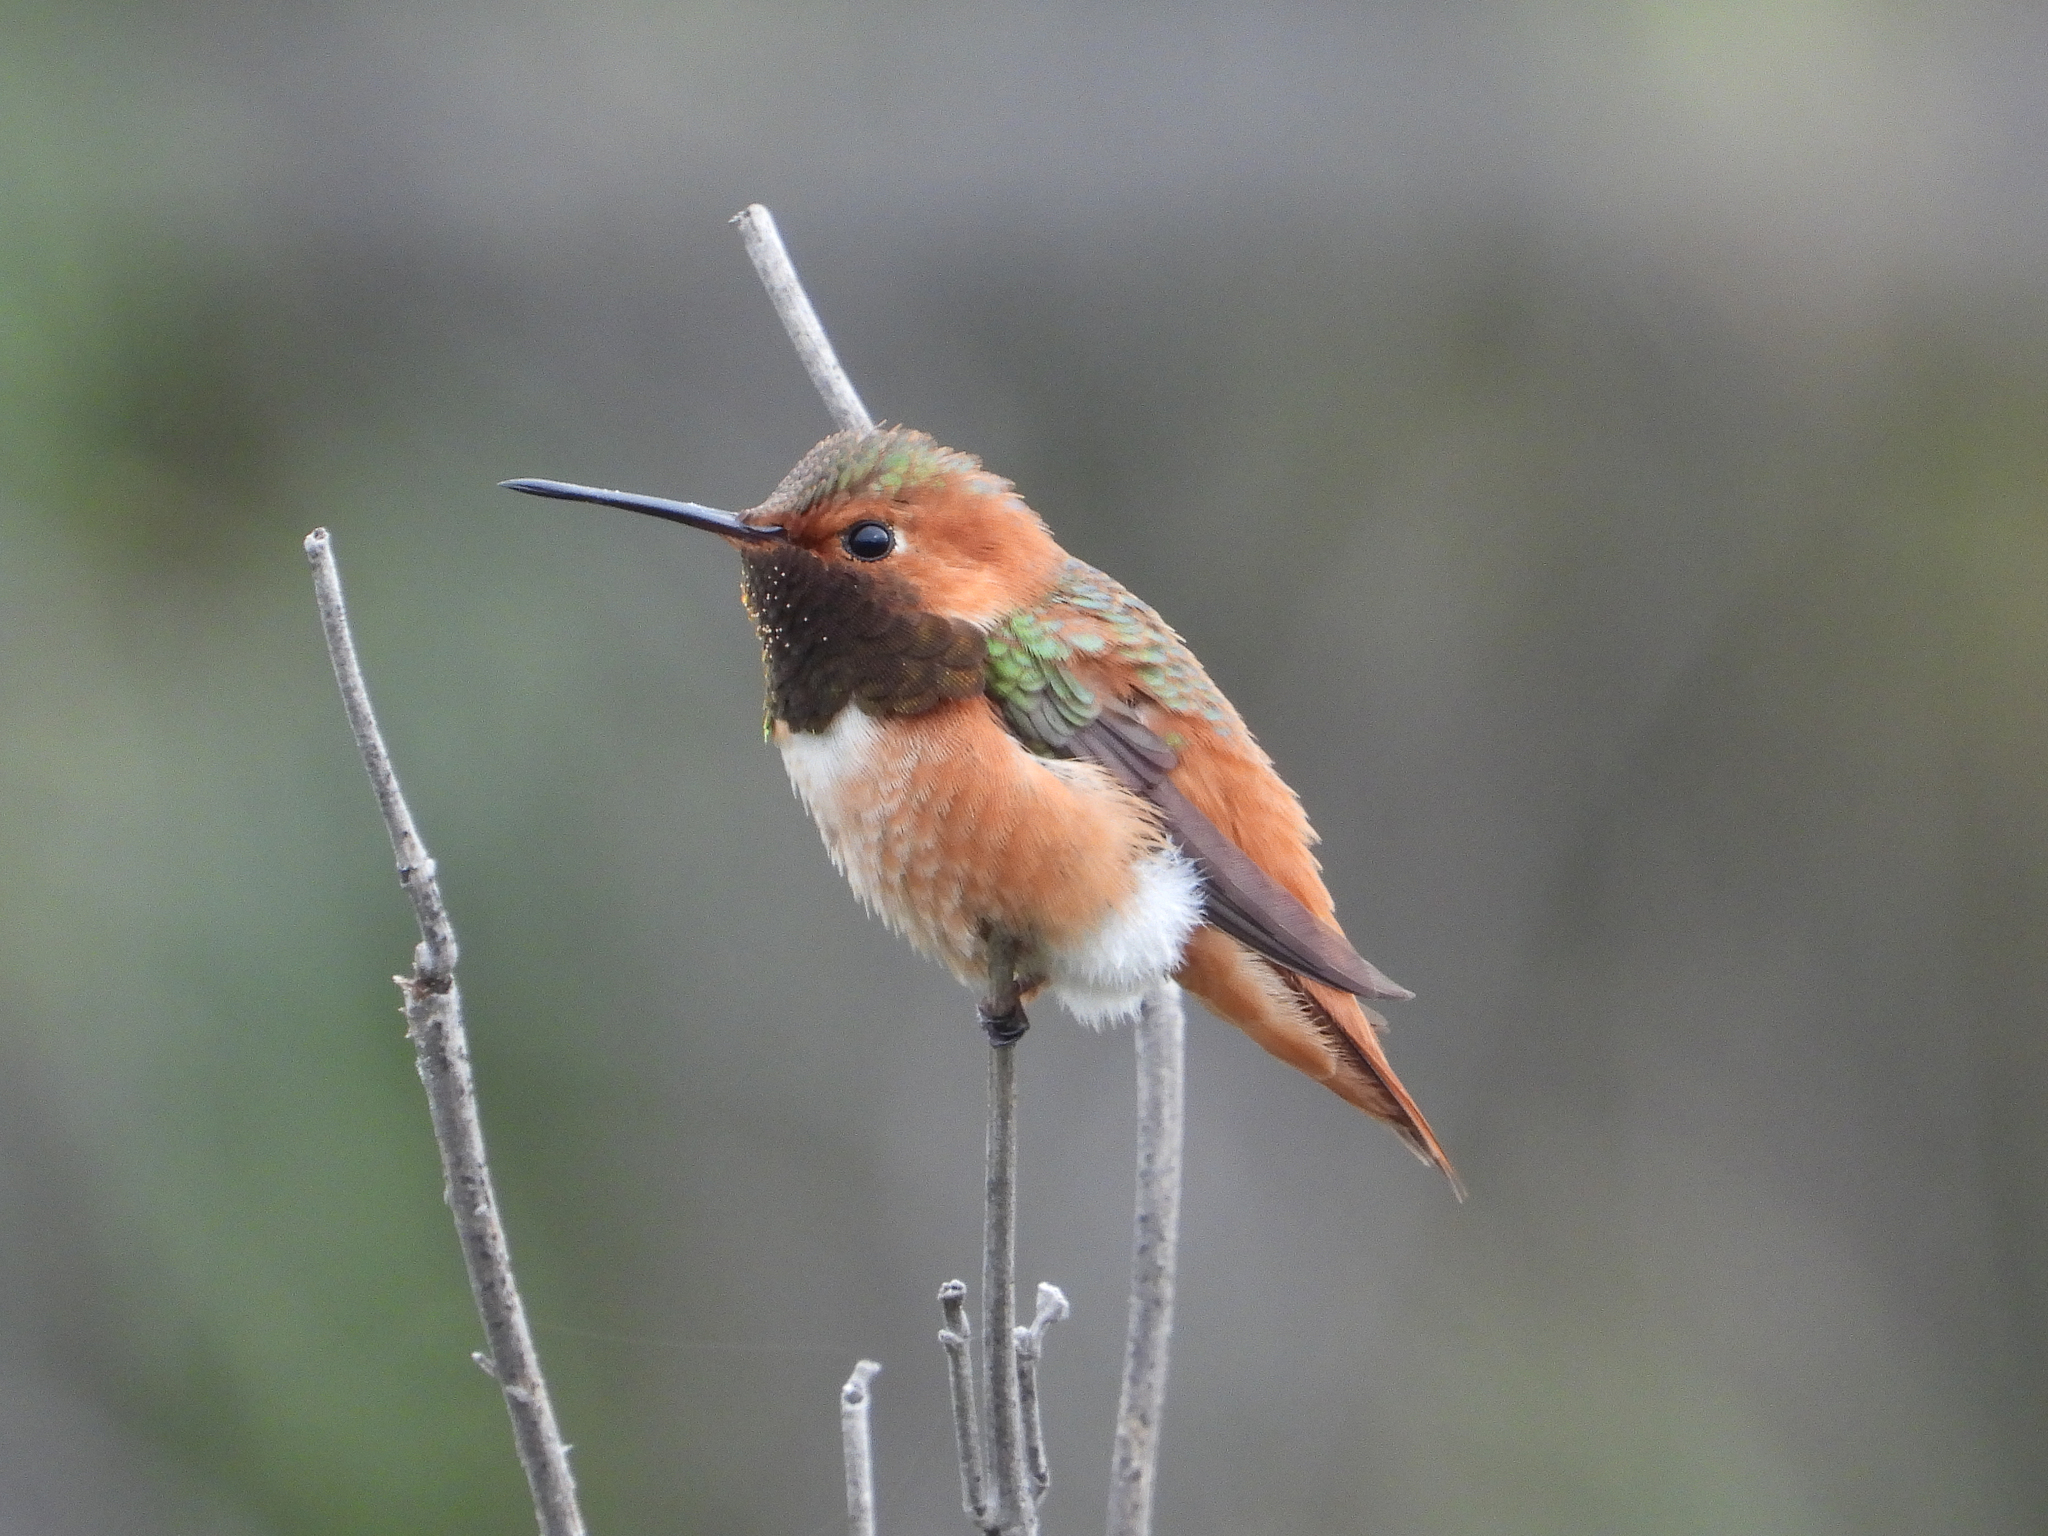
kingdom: Animalia
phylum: Chordata
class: Aves
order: Apodiformes
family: Trochilidae
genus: Selasphorus
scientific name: Selasphorus sasin
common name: Allen's hummingbird
